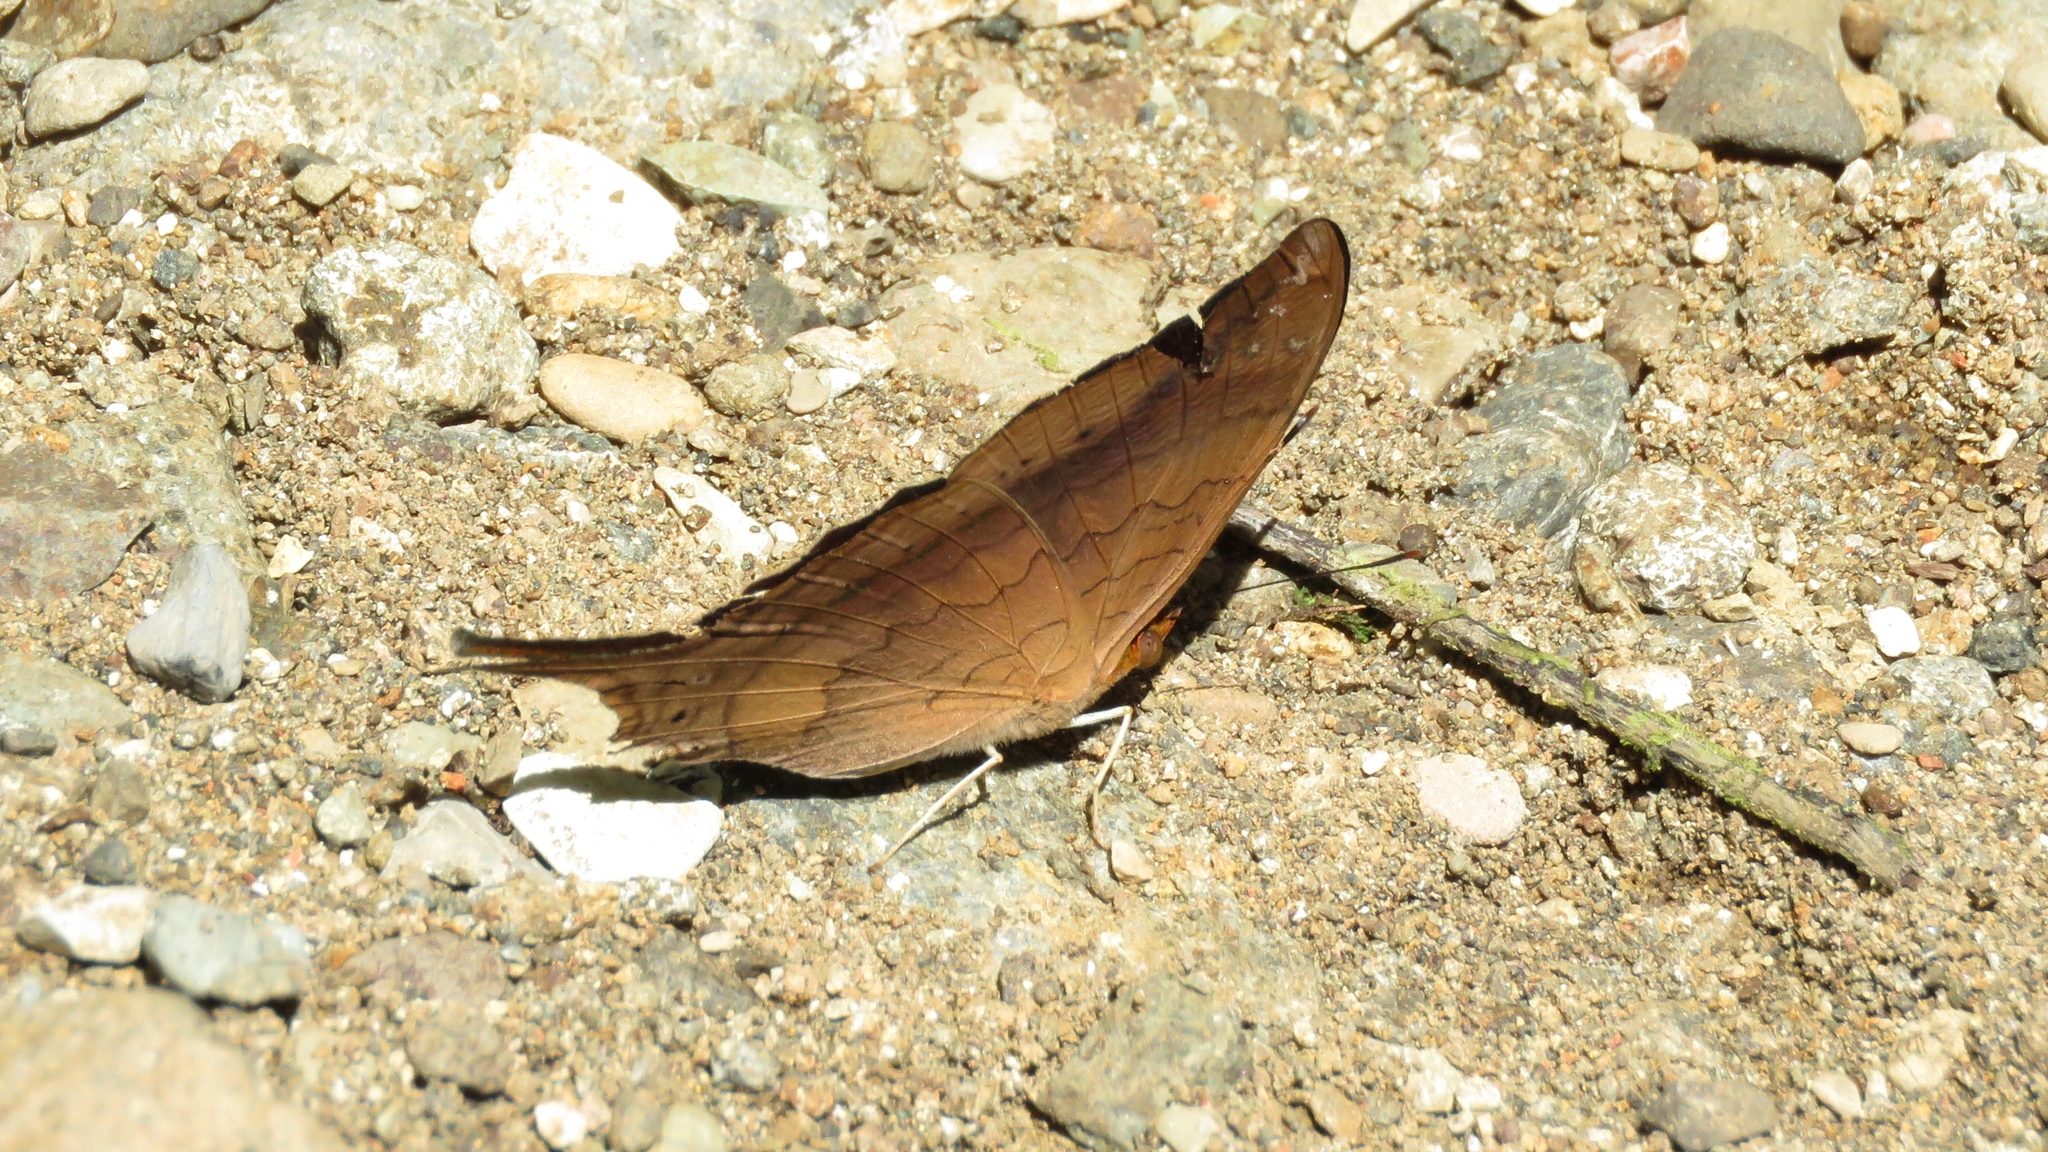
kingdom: Animalia
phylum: Arthropoda
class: Insecta
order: Lepidoptera
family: Nymphalidae
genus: Marpesia
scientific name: Marpesia furcula
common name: Sunset daggerwing
